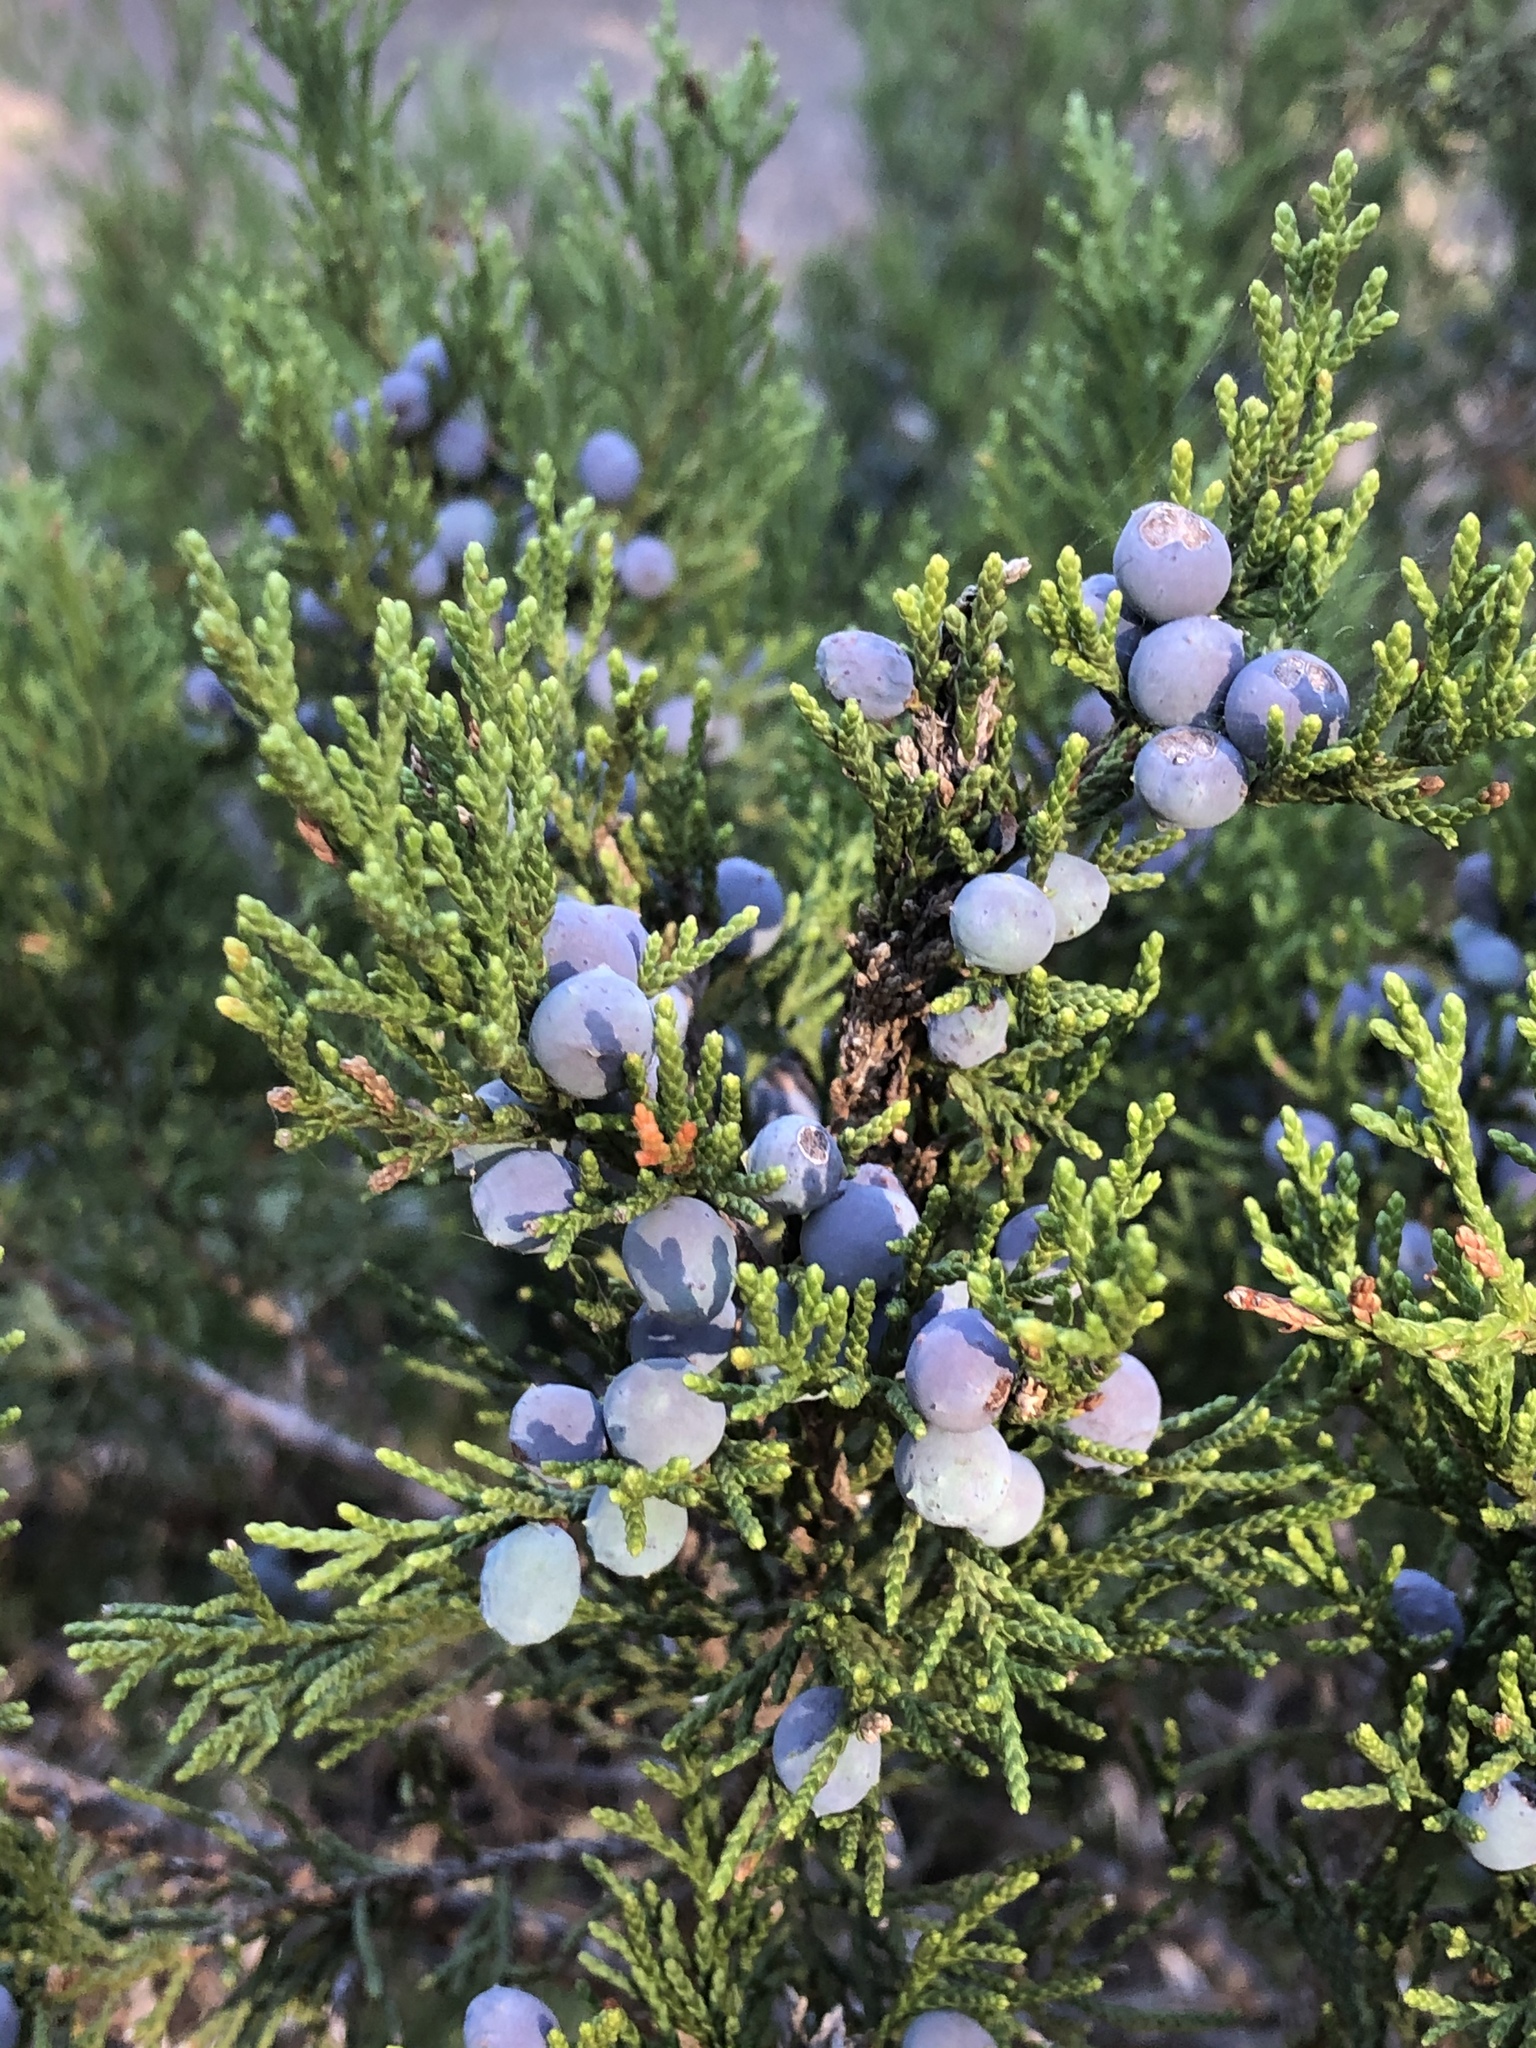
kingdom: Plantae
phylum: Tracheophyta
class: Pinopsida
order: Pinales
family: Cupressaceae
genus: Juniperus
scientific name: Juniperus ashei
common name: Mexican juniper
